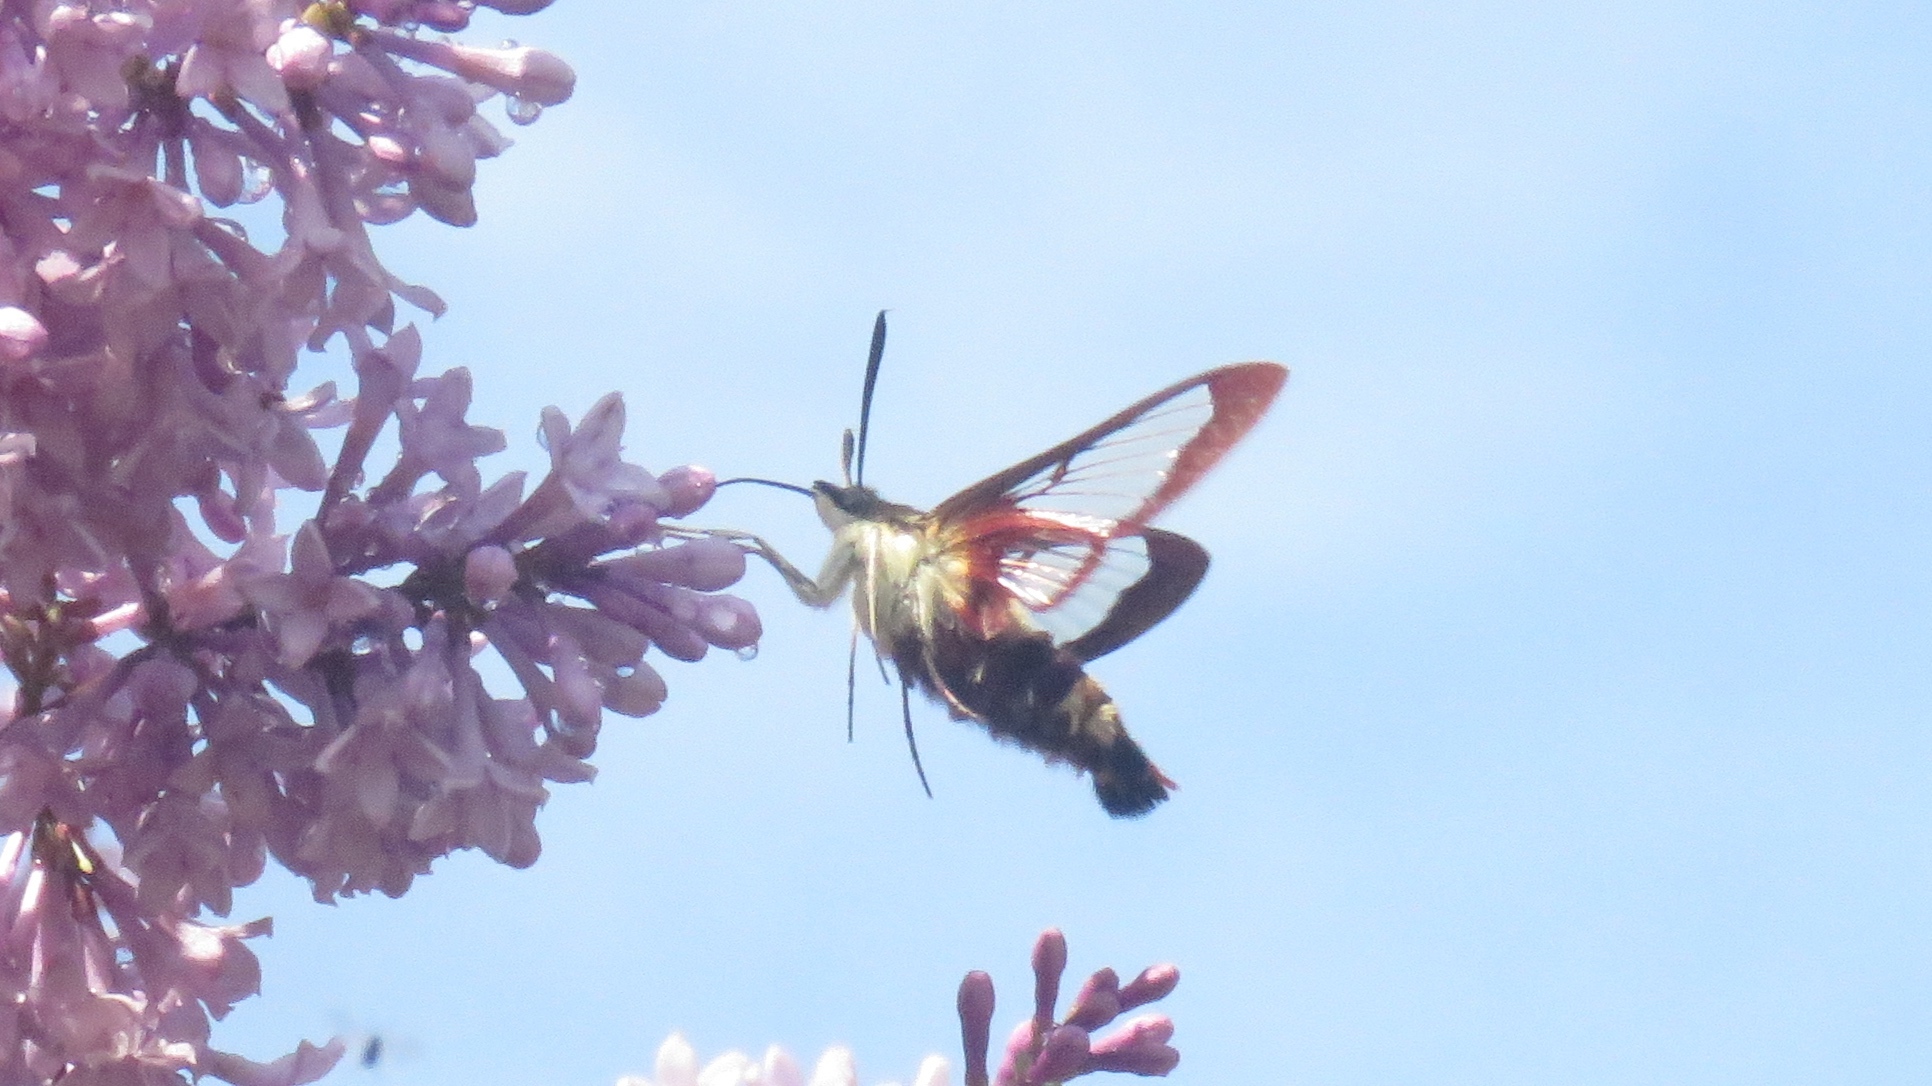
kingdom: Animalia
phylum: Arthropoda
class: Insecta
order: Lepidoptera
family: Sphingidae
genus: Hemaris
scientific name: Hemaris thysbe
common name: Common clear-wing
